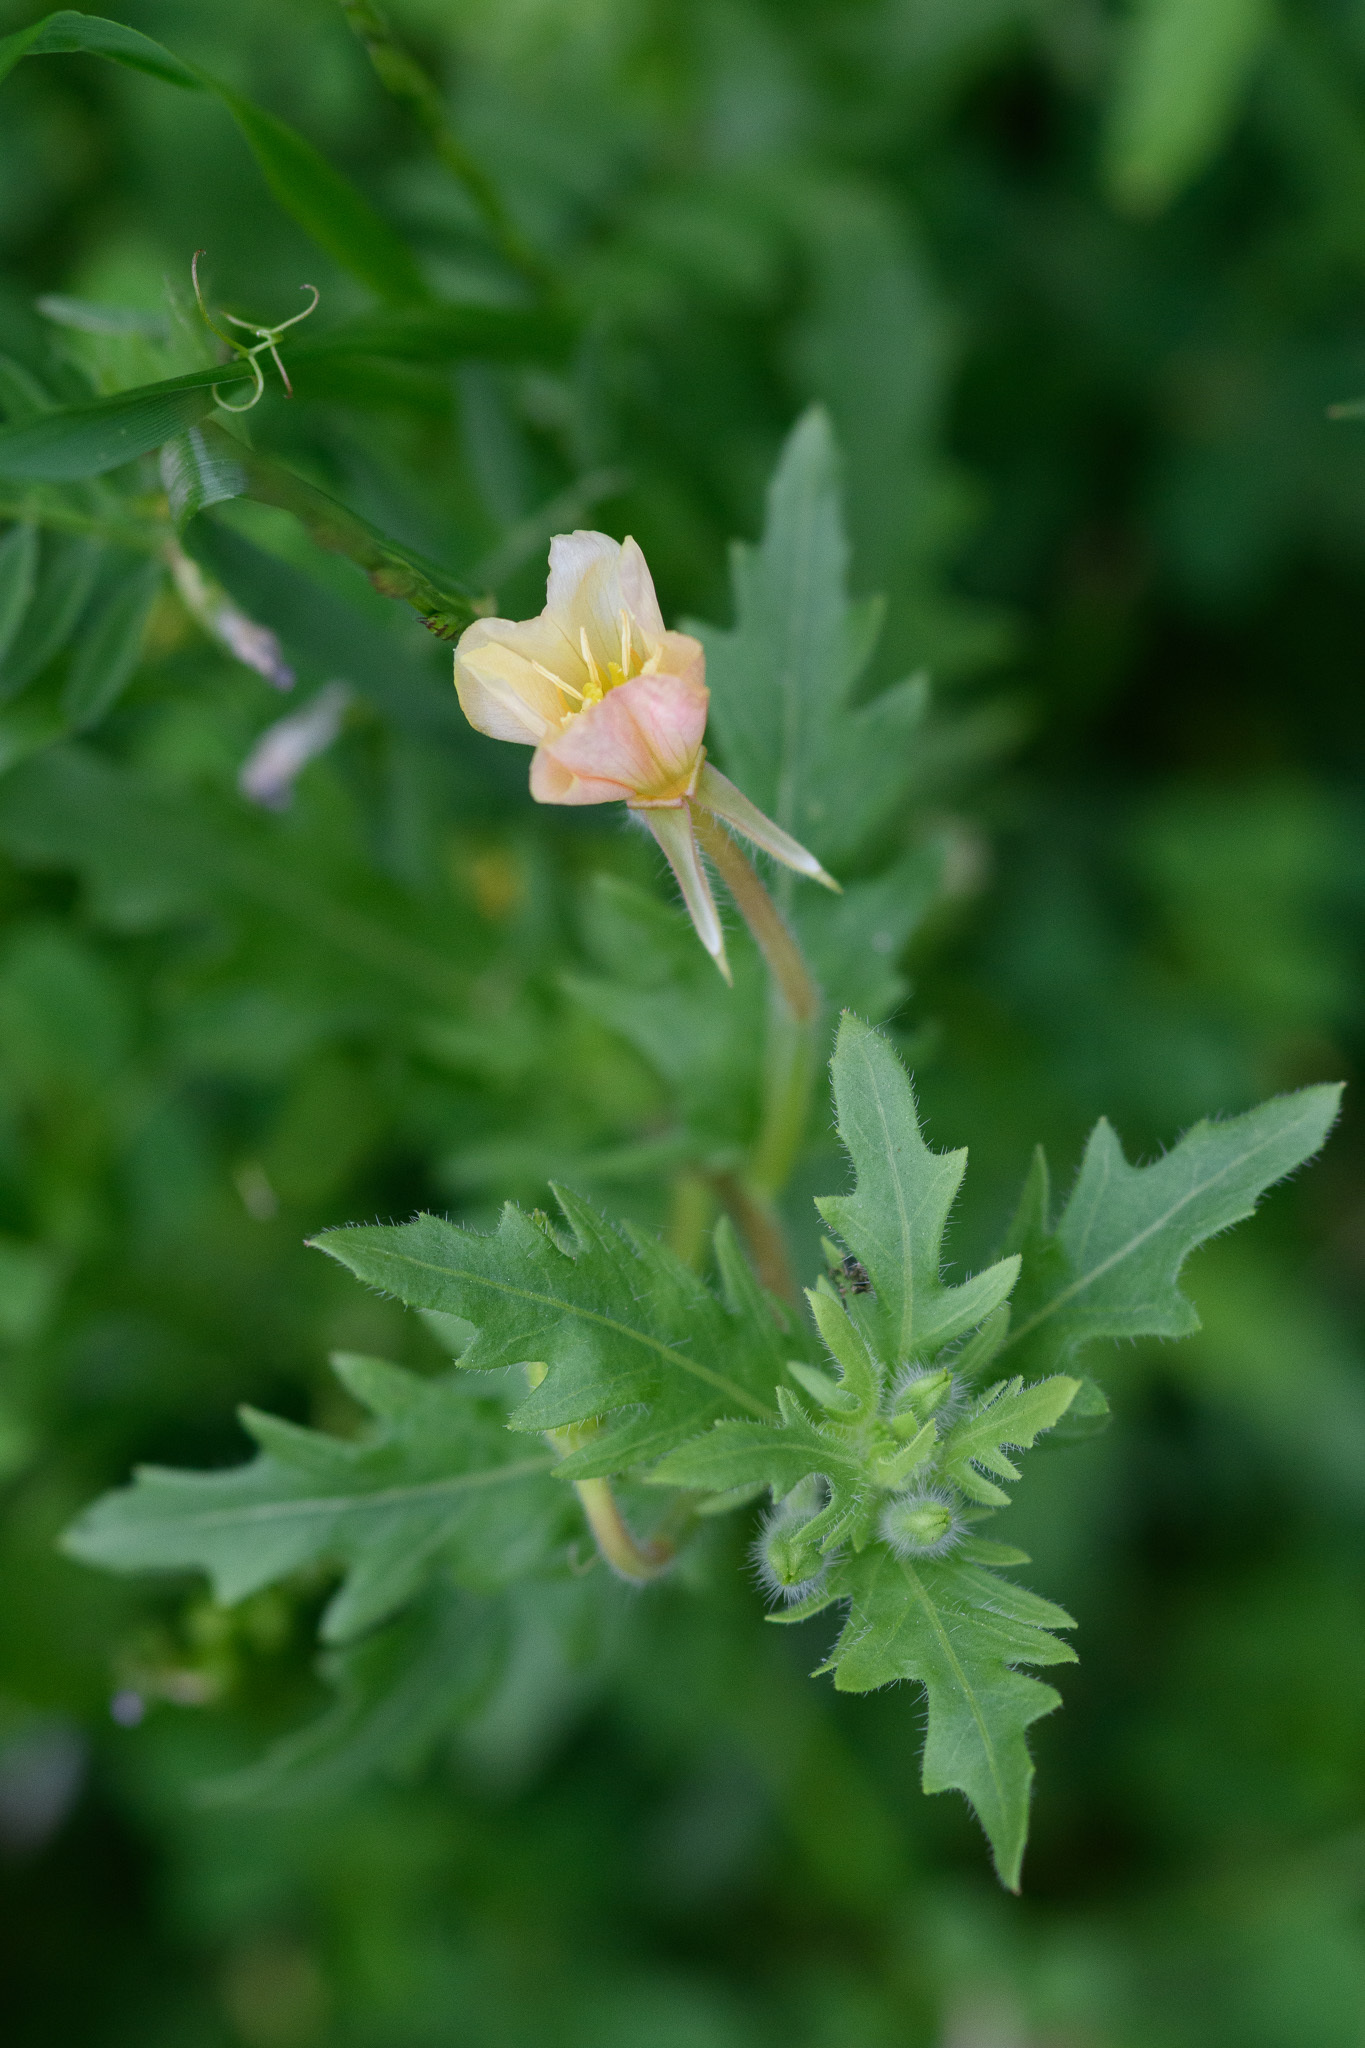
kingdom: Plantae
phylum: Tracheophyta
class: Magnoliopsida
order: Myrtales
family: Onagraceae
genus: Oenothera
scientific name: Oenothera laciniata
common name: Cut-leaved evening-primrose
